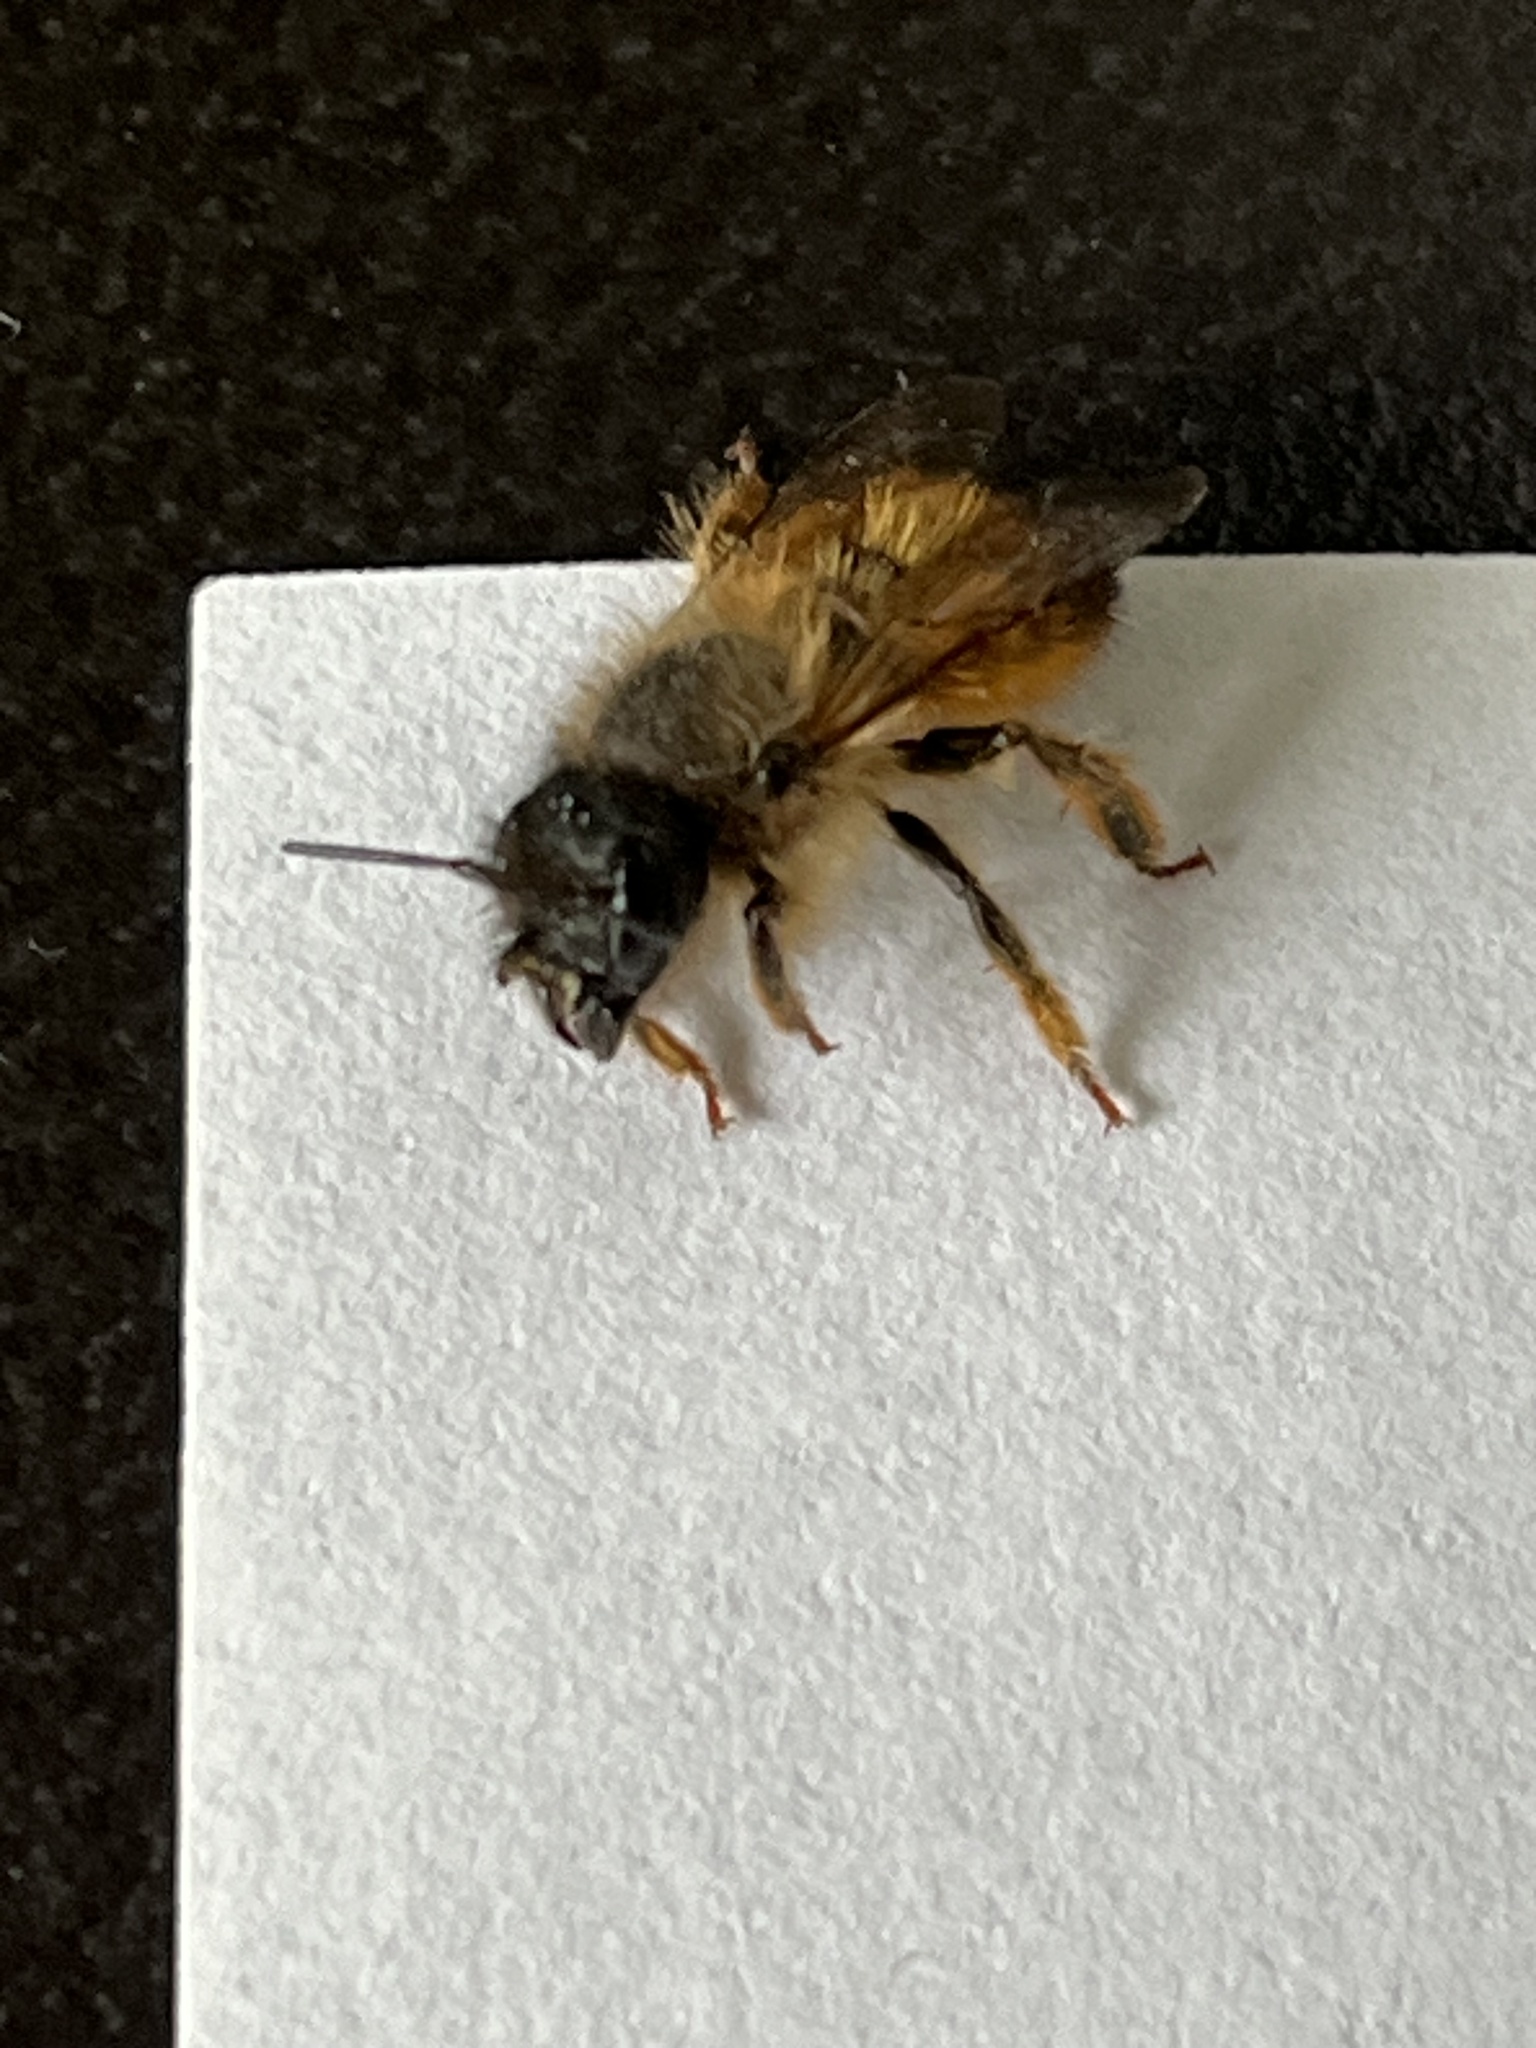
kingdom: Animalia
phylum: Arthropoda
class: Insecta
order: Hymenoptera
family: Megachilidae
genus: Osmia
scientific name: Osmia bicornis
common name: Red mason bee
